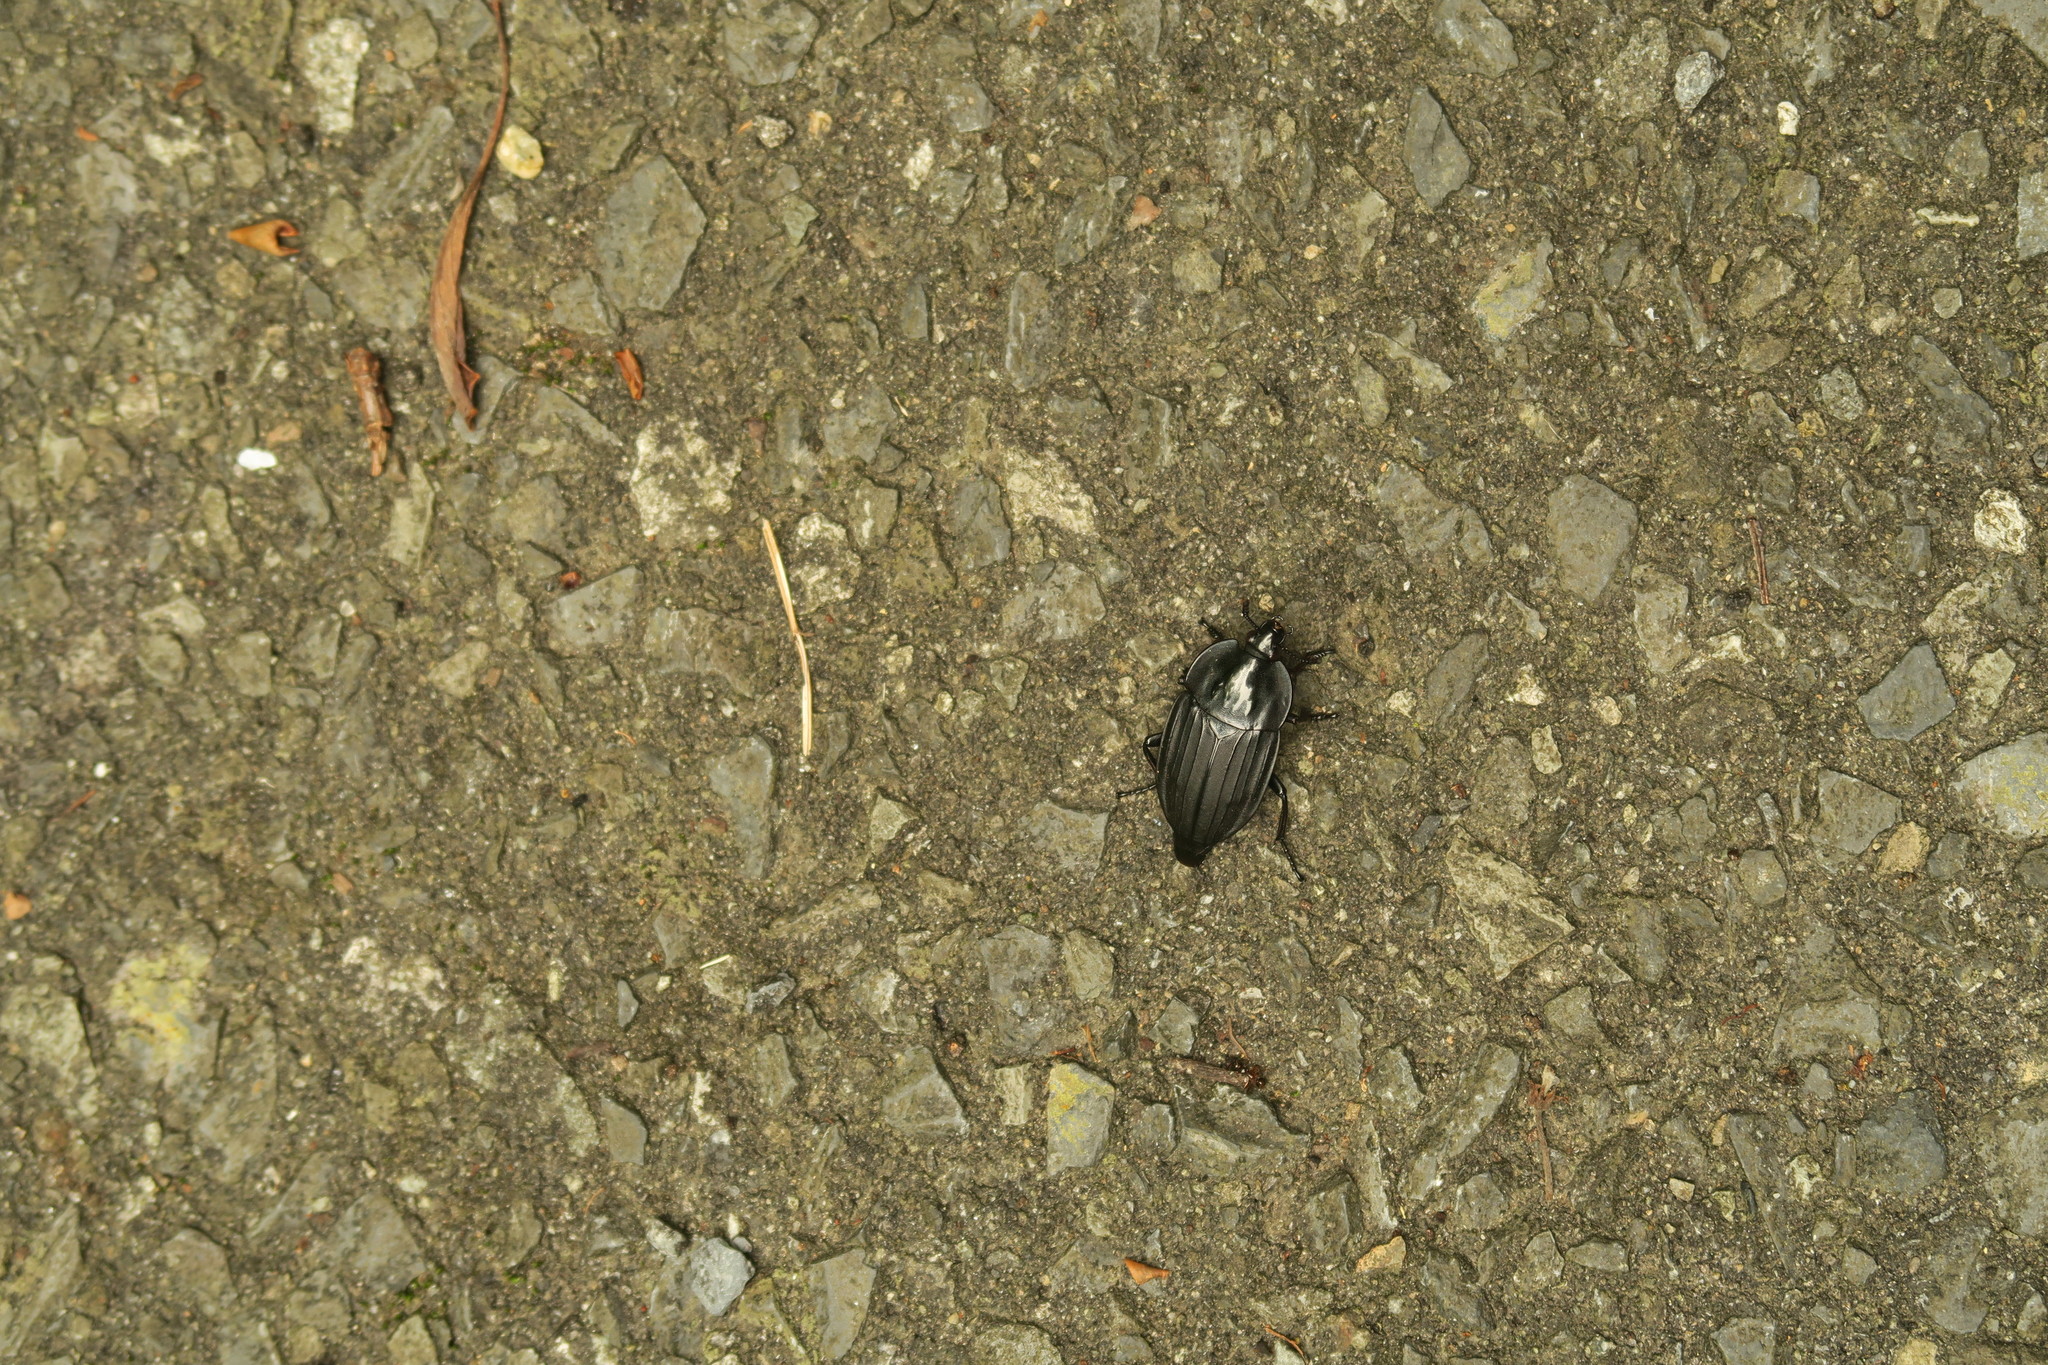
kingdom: Animalia
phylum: Arthropoda
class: Insecta
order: Coleoptera
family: Staphylinidae
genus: Necrophila
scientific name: Necrophila japonica
